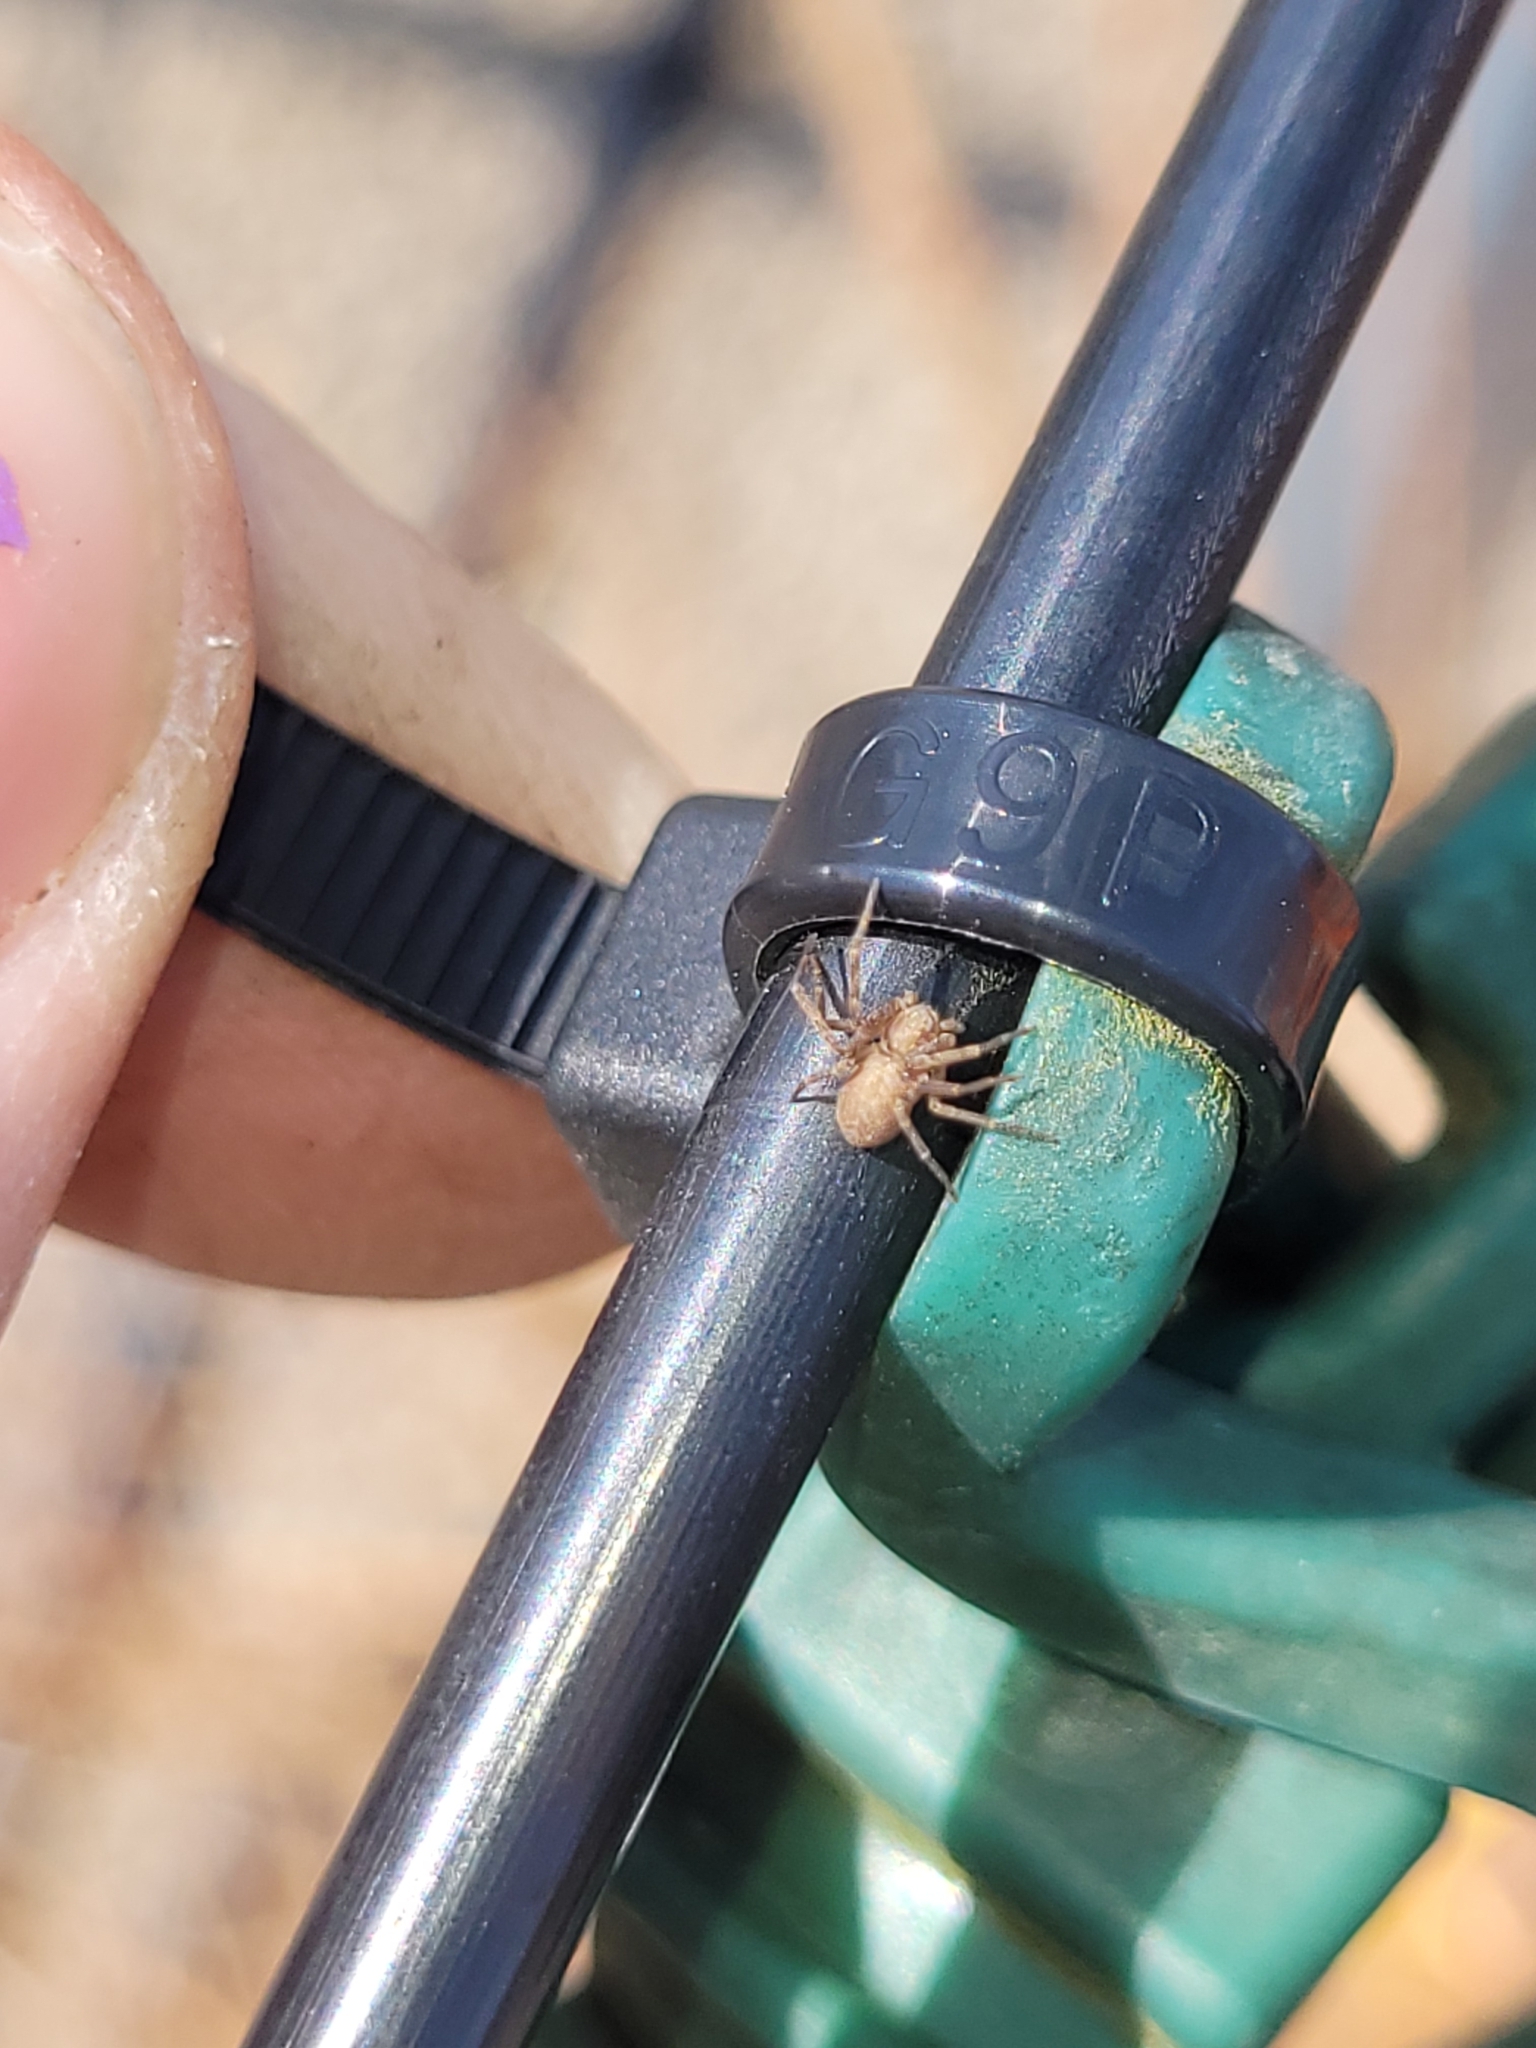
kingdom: Animalia
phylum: Arthropoda
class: Arachnida
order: Araneae
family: Philodromidae
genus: Philodromus
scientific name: Philodromus rufus
